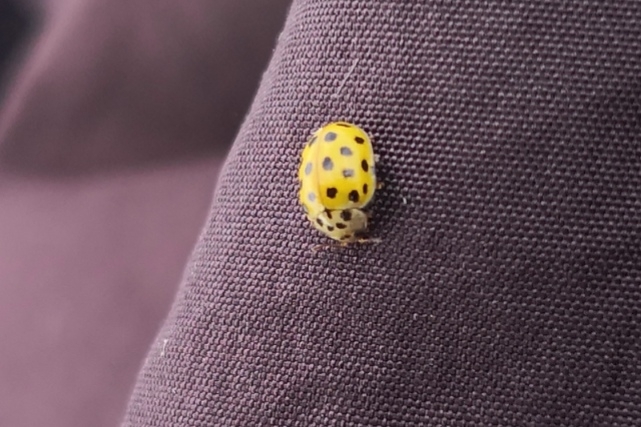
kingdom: Animalia
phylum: Arthropoda
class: Insecta
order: Coleoptera
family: Coccinellidae
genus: Psyllobora
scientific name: Psyllobora vigintiduopunctata
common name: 22-spot ladybird
